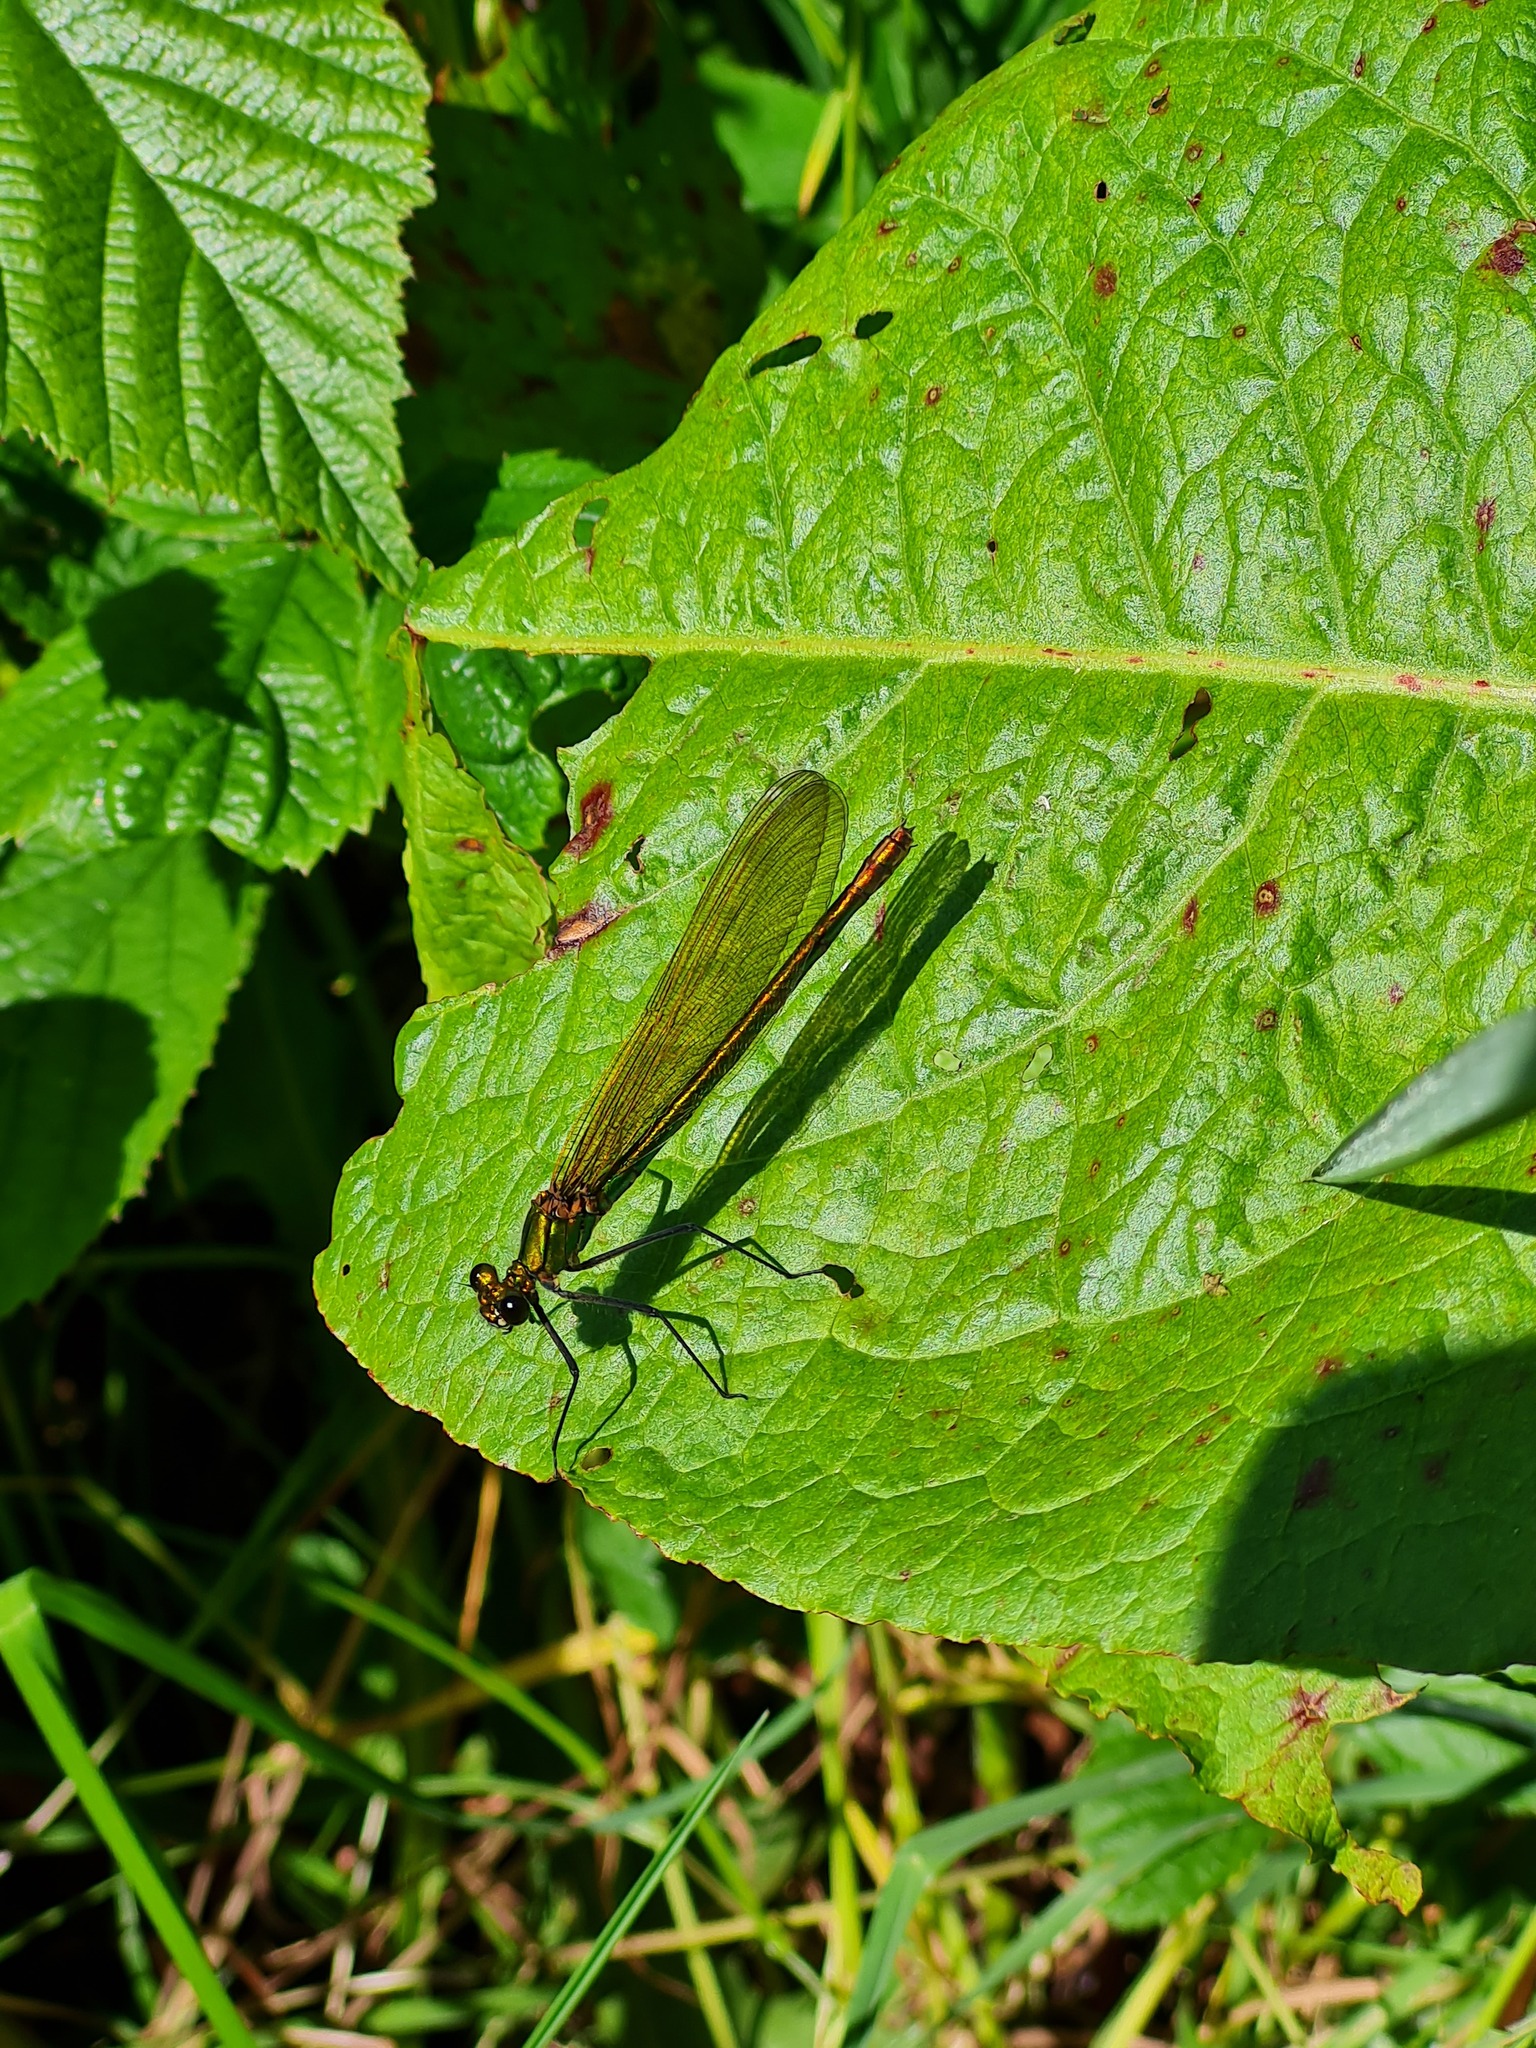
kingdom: Animalia
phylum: Arthropoda
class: Insecta
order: Odonata
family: Calopterygidae
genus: Calopteryx
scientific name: Calopteryx splendens
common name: Banded demoiselle
